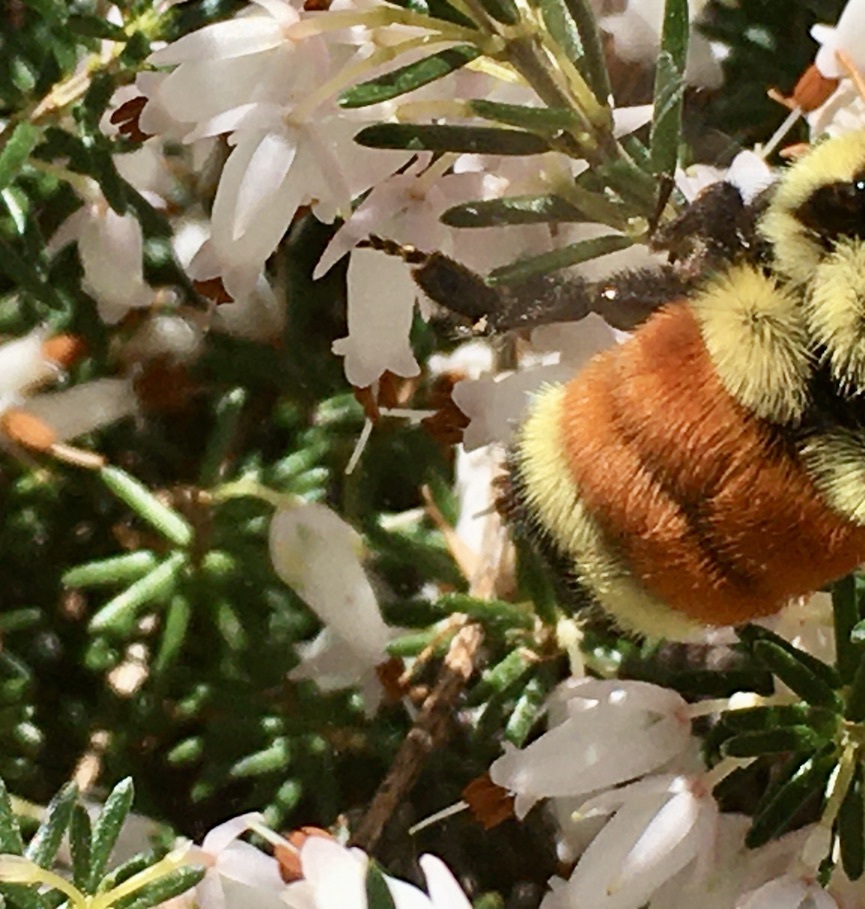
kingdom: Animalia
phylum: Arthropoda
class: Insecta
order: Hymenoptera
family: Apidae
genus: Bombus
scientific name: Bombus ternarius
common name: Tri-colored bumble bee
